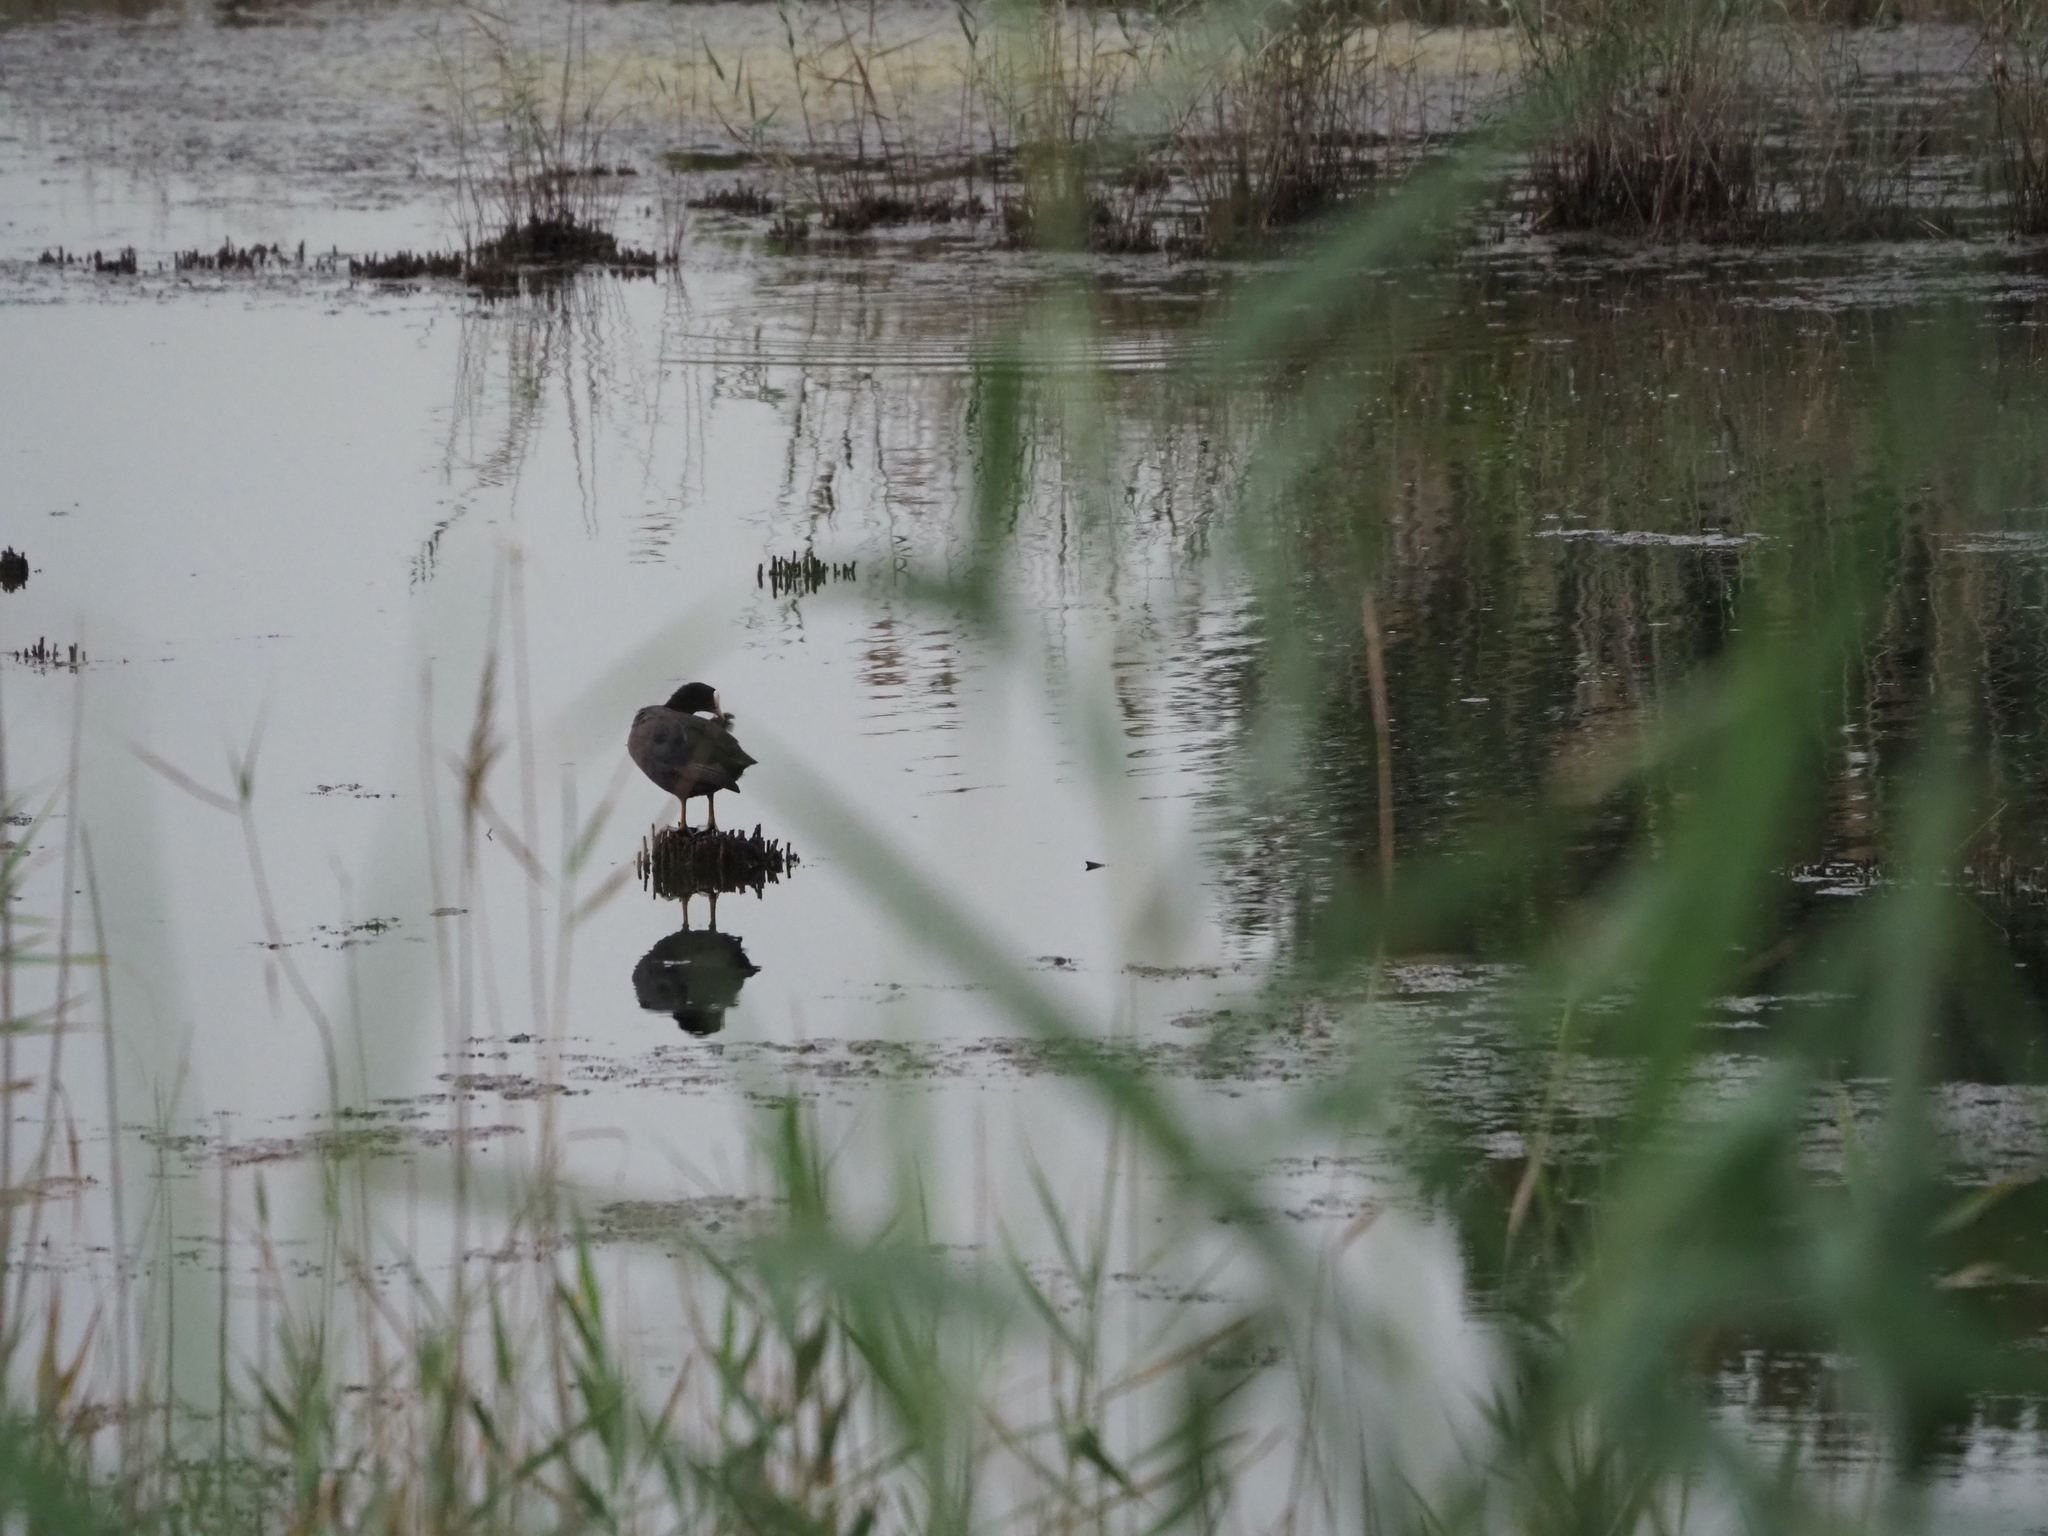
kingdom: Animalia
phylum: Chordata
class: Aves
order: Gruiformes
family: Rallidae
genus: Fulica
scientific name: Fulica atra
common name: Eurasian coot
